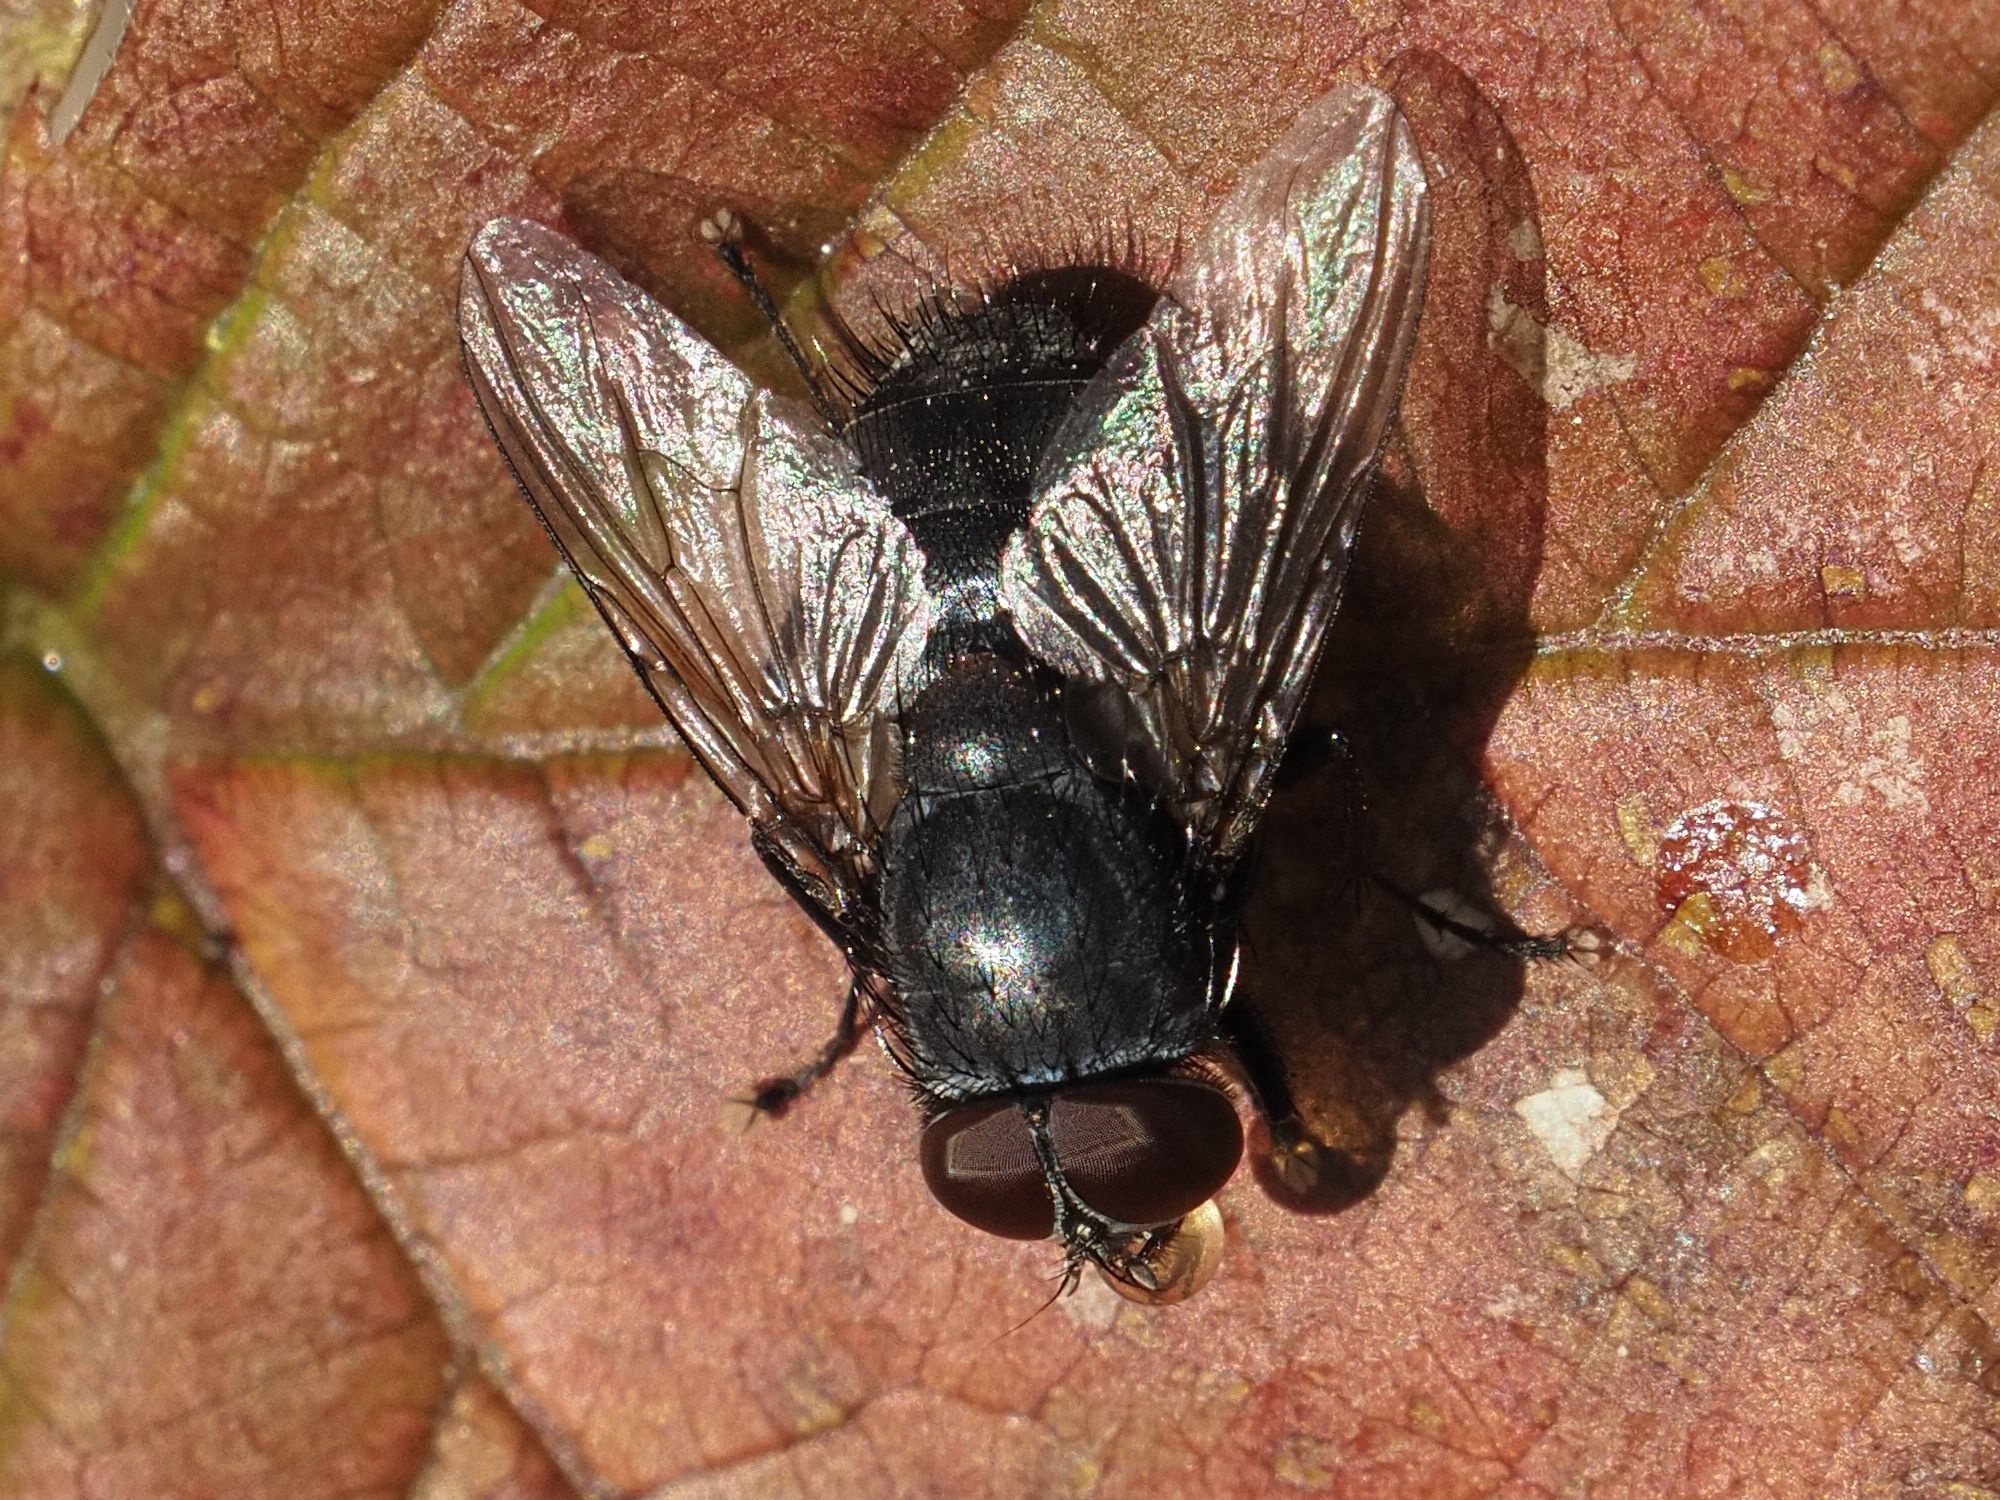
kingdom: Animalia
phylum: Arthropoda
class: Insecta
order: Diptera
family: Muscidae
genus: Muscina
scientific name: Muscina pascuorum
